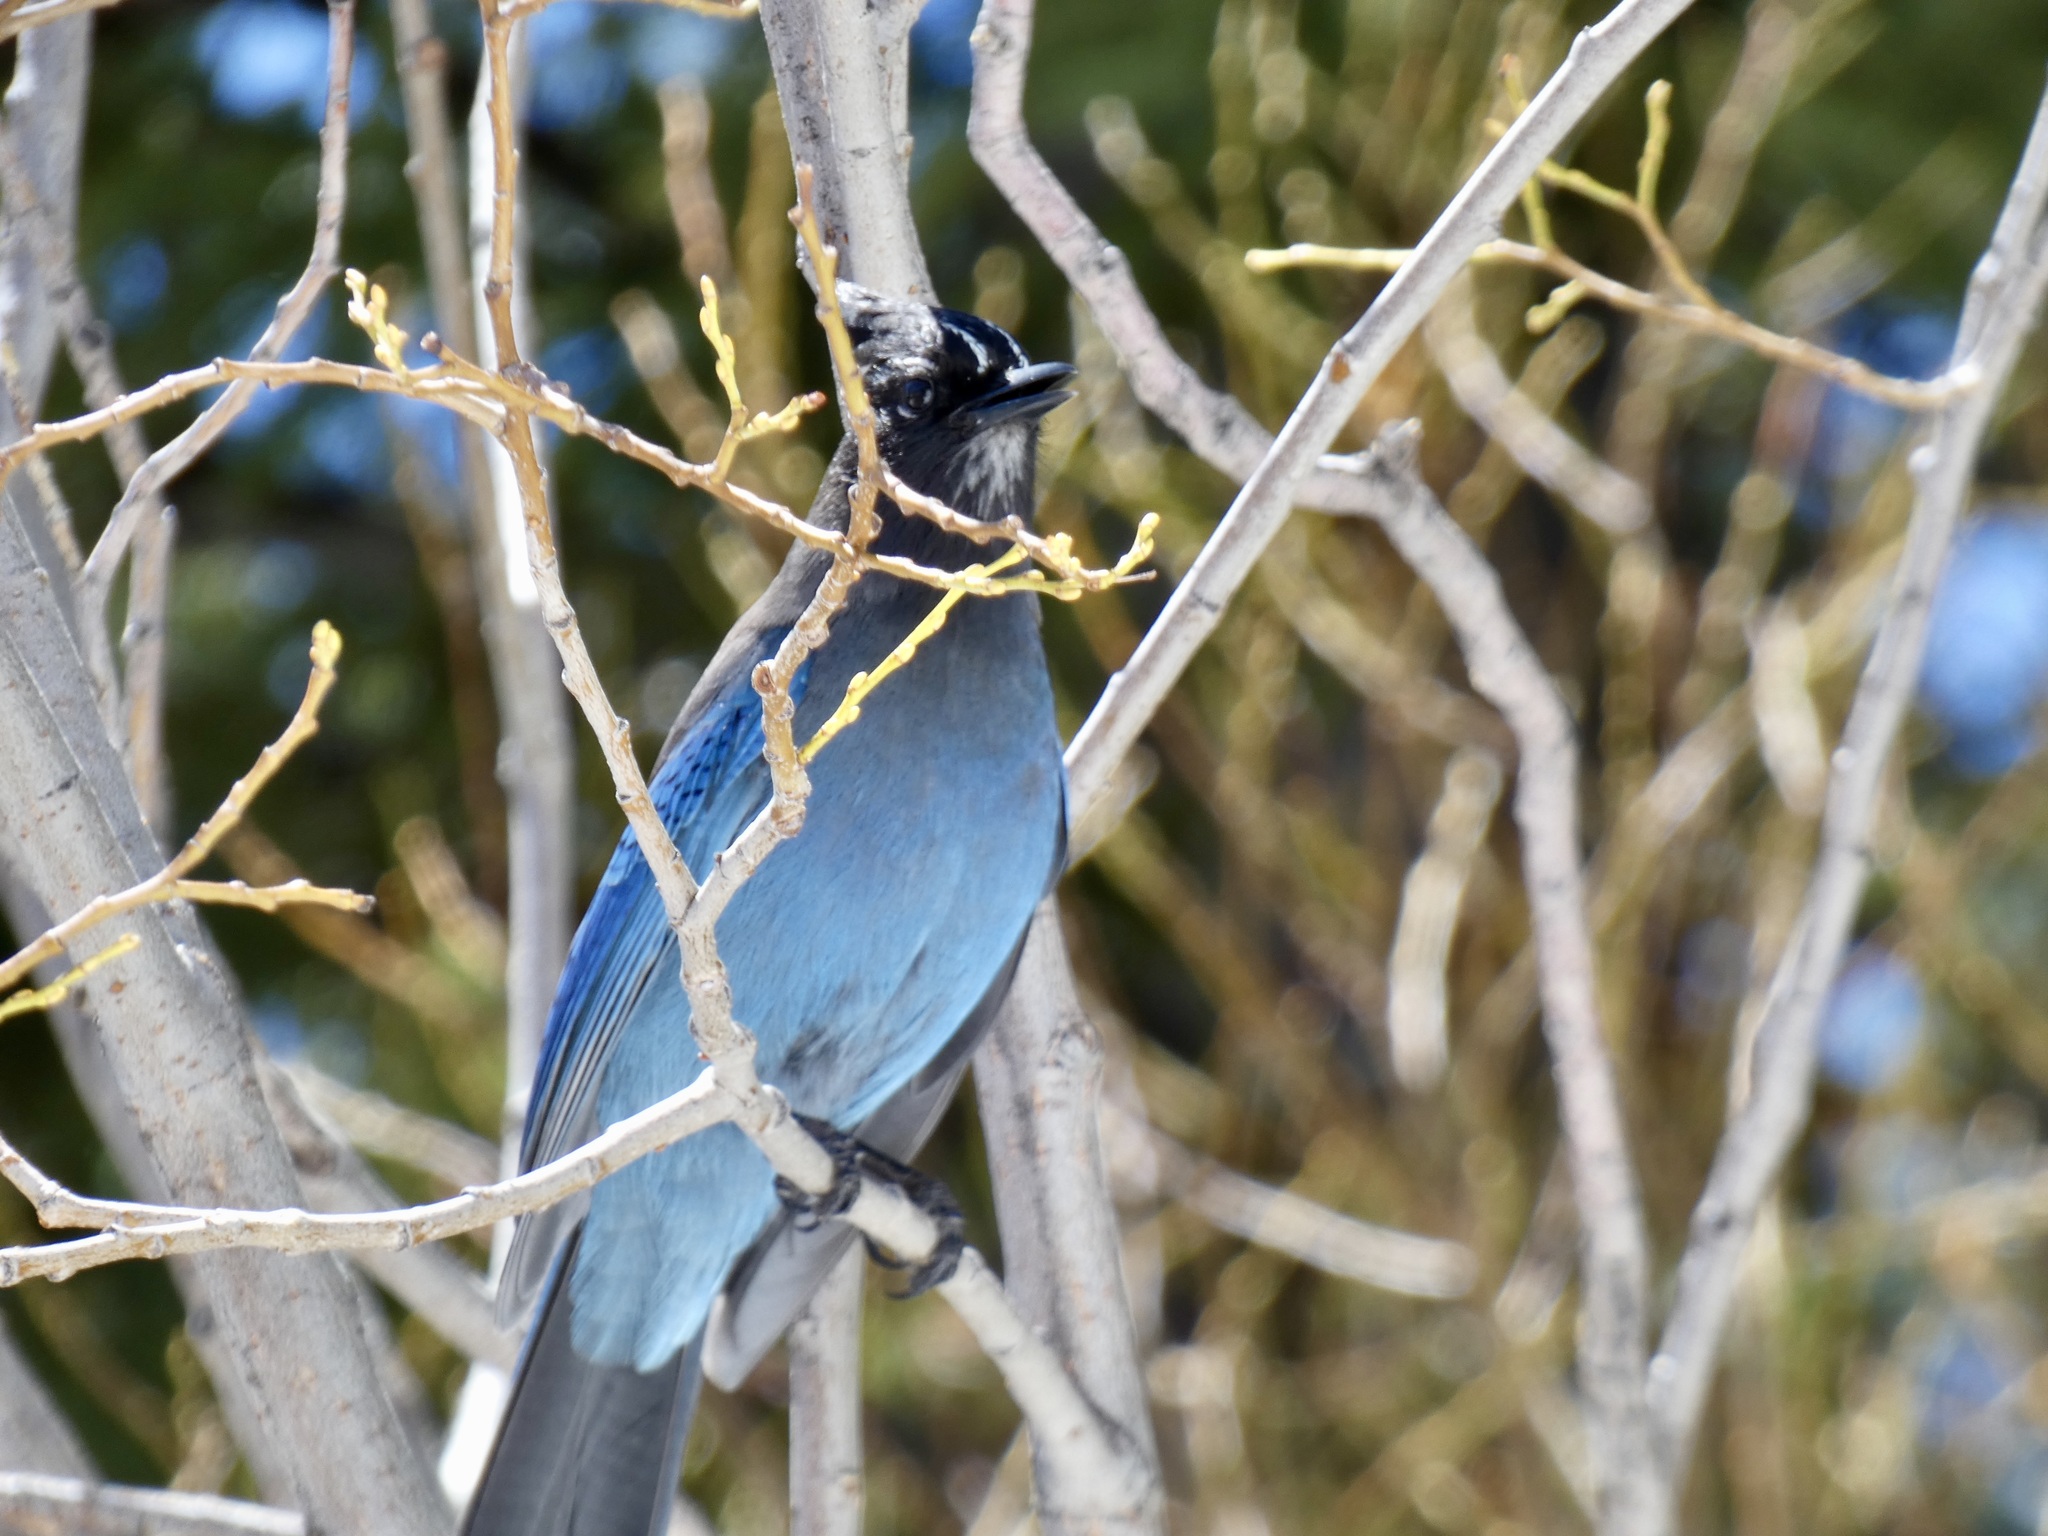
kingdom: Animalia
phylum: Chordata
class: Aves
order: Passeriformes
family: Corvidae
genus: Cyanocitta
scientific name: Cyanocitta stelleri
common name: Steller's jay
